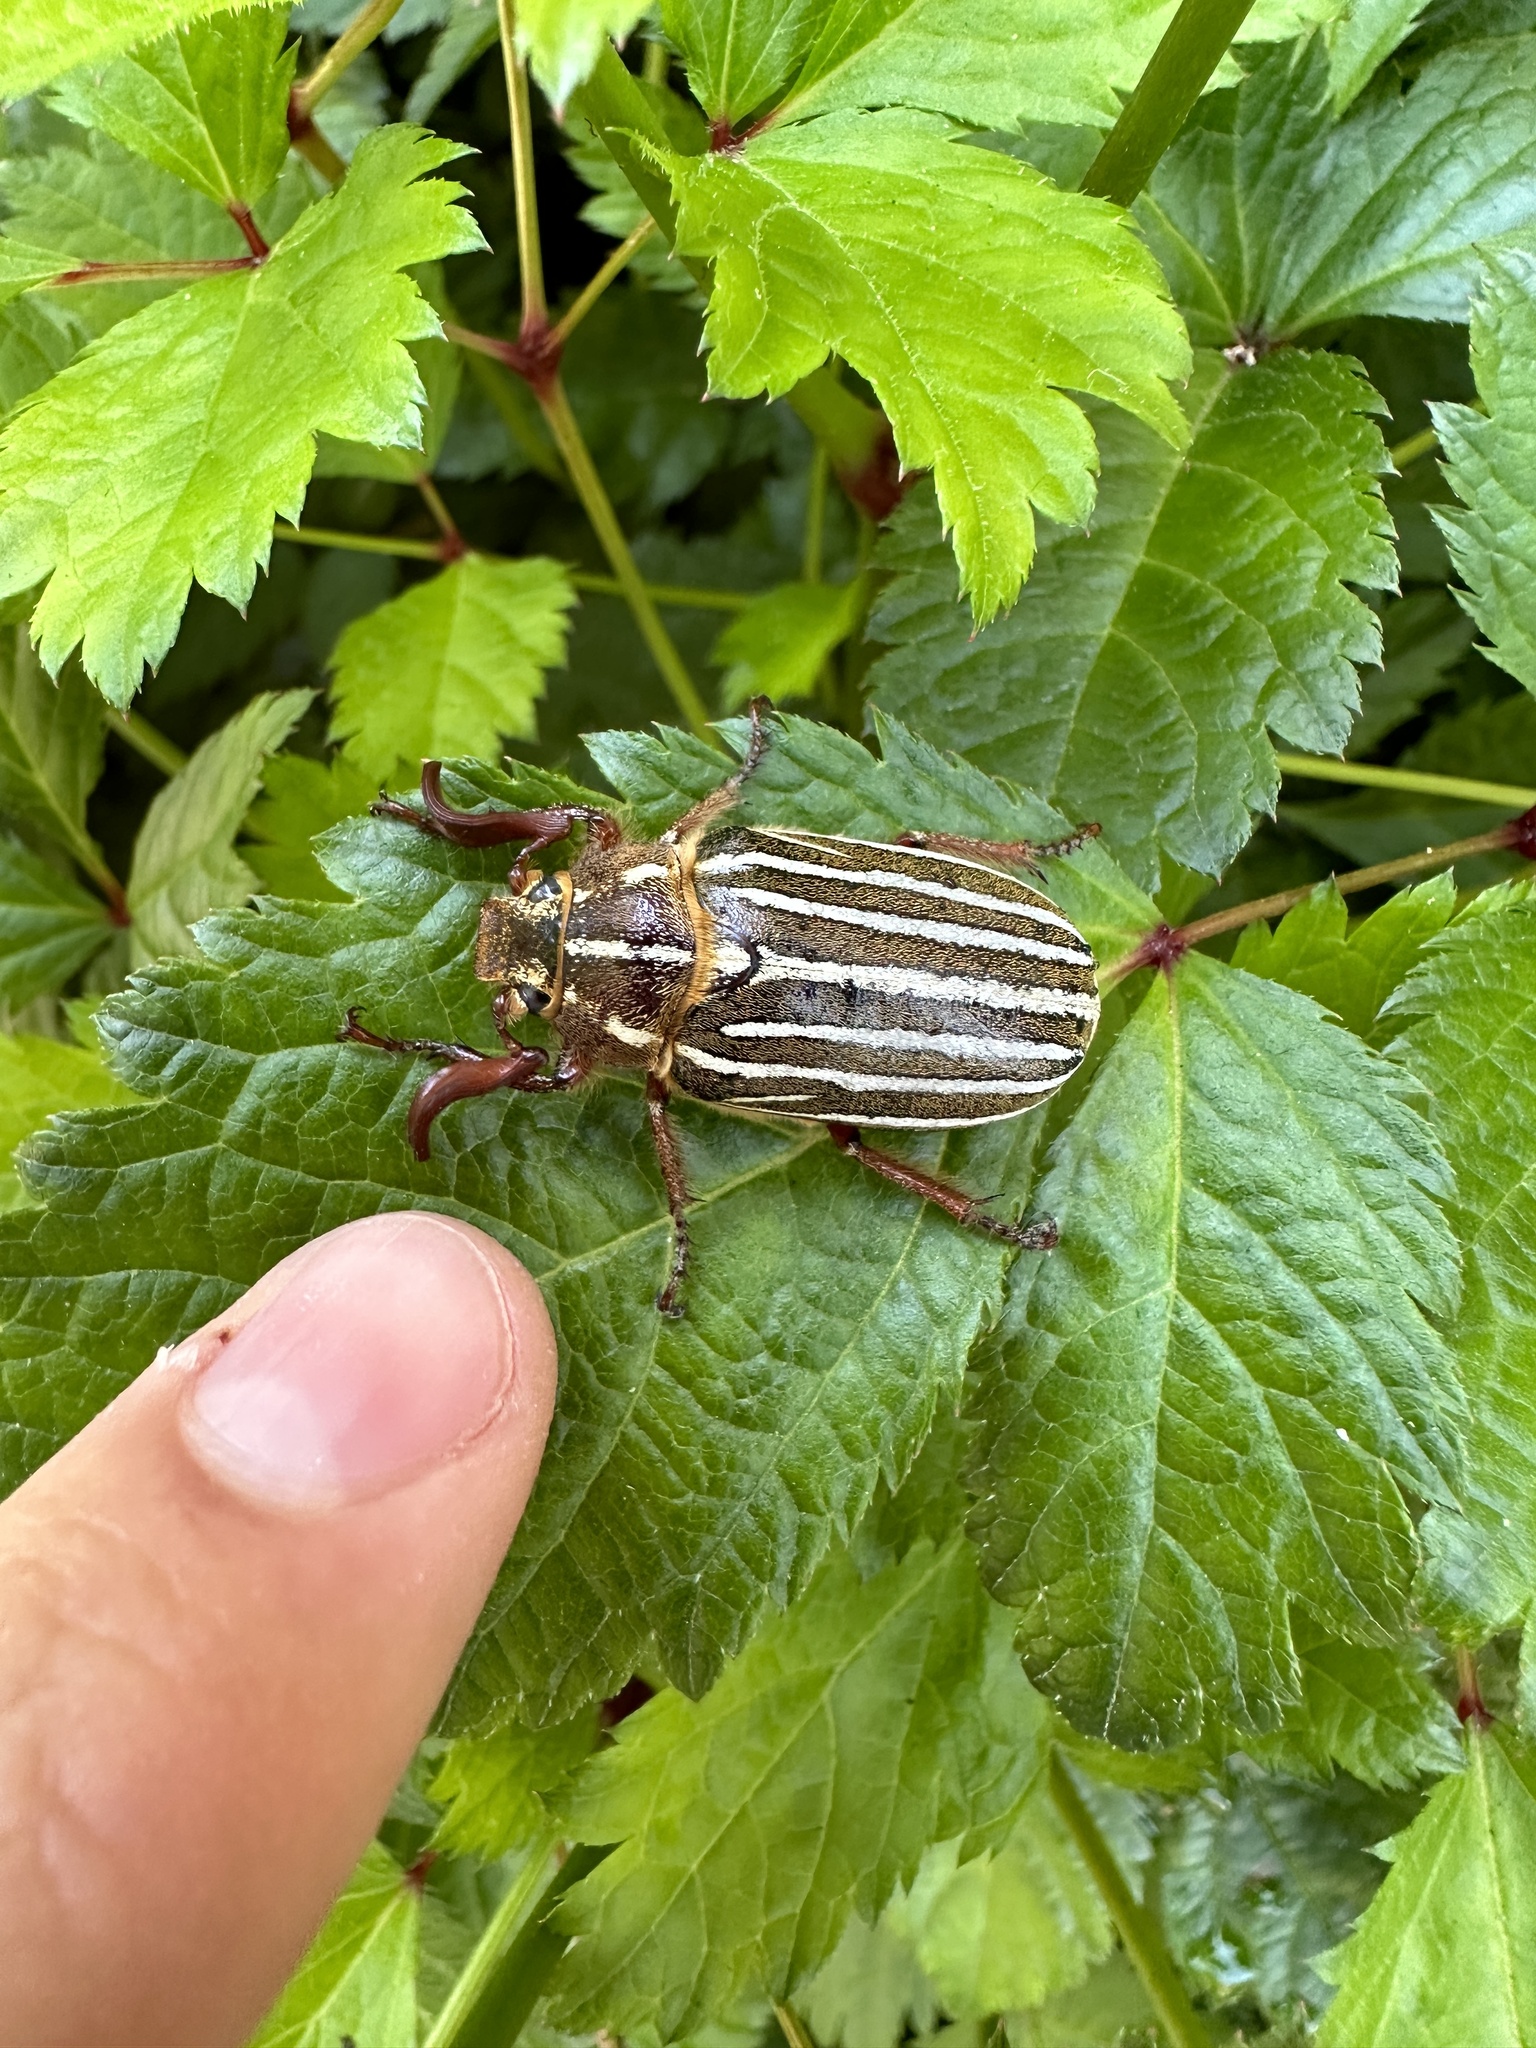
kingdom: Animalia
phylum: Arthropoda
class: Insecta
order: Coleoptera
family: Scarabaeidae
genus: Polyphylla
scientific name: Polyphylla crinita
